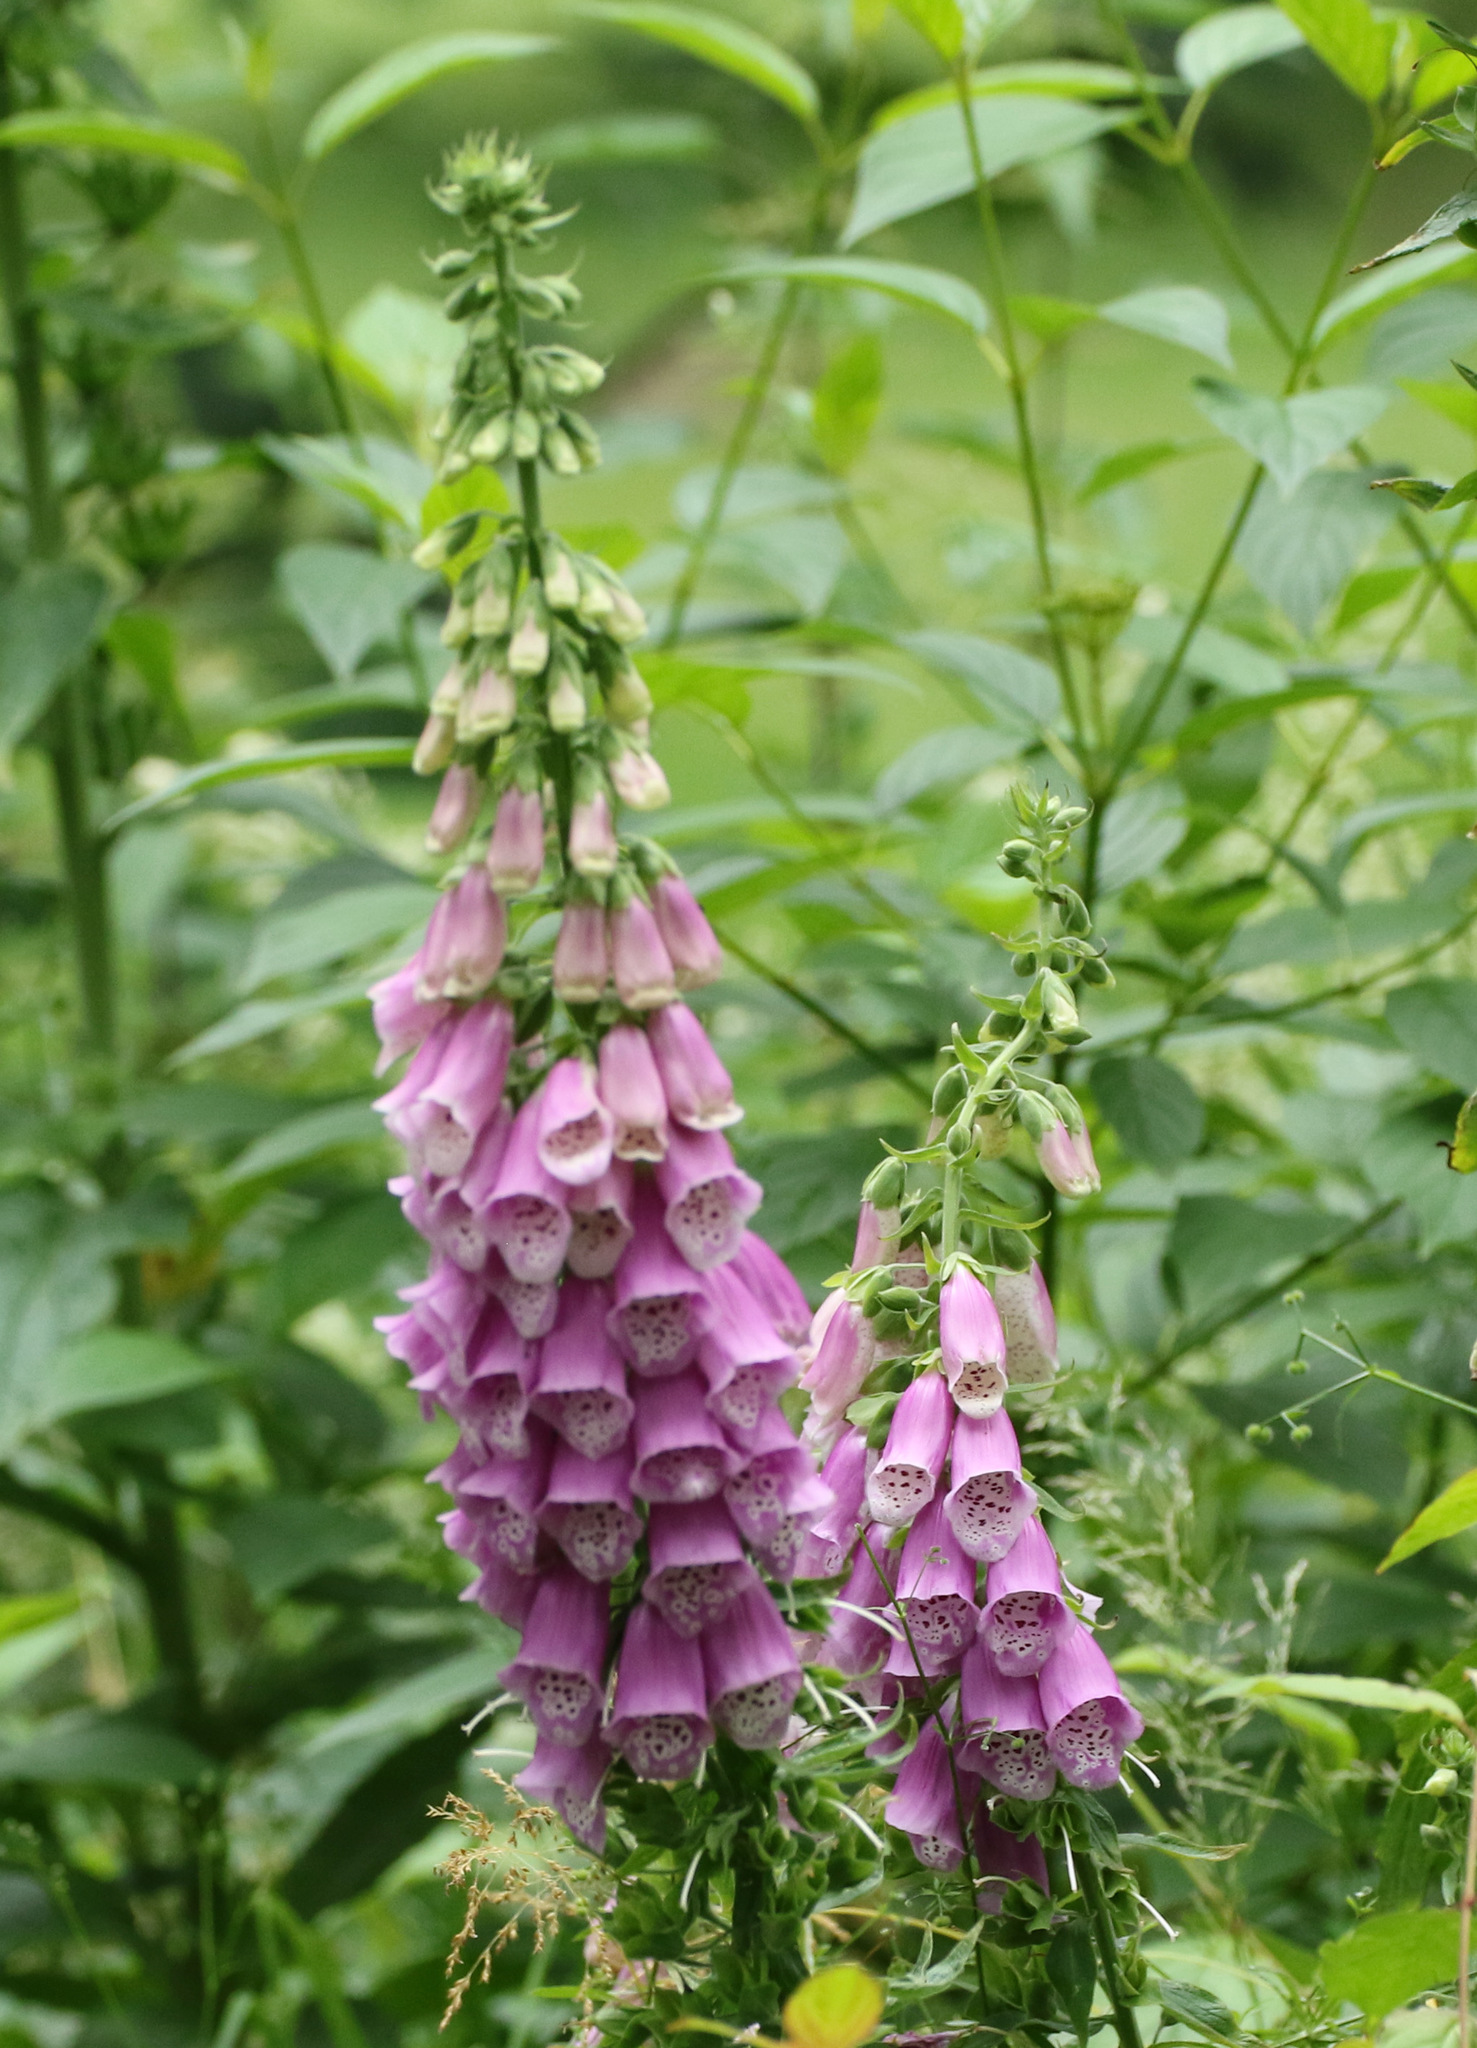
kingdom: Plantae
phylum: Tracheophyta
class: Magnoliopsida
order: Lamiales
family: Plantaginaceae
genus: Digitalis
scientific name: Digitalis purpurea
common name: Foxglove
